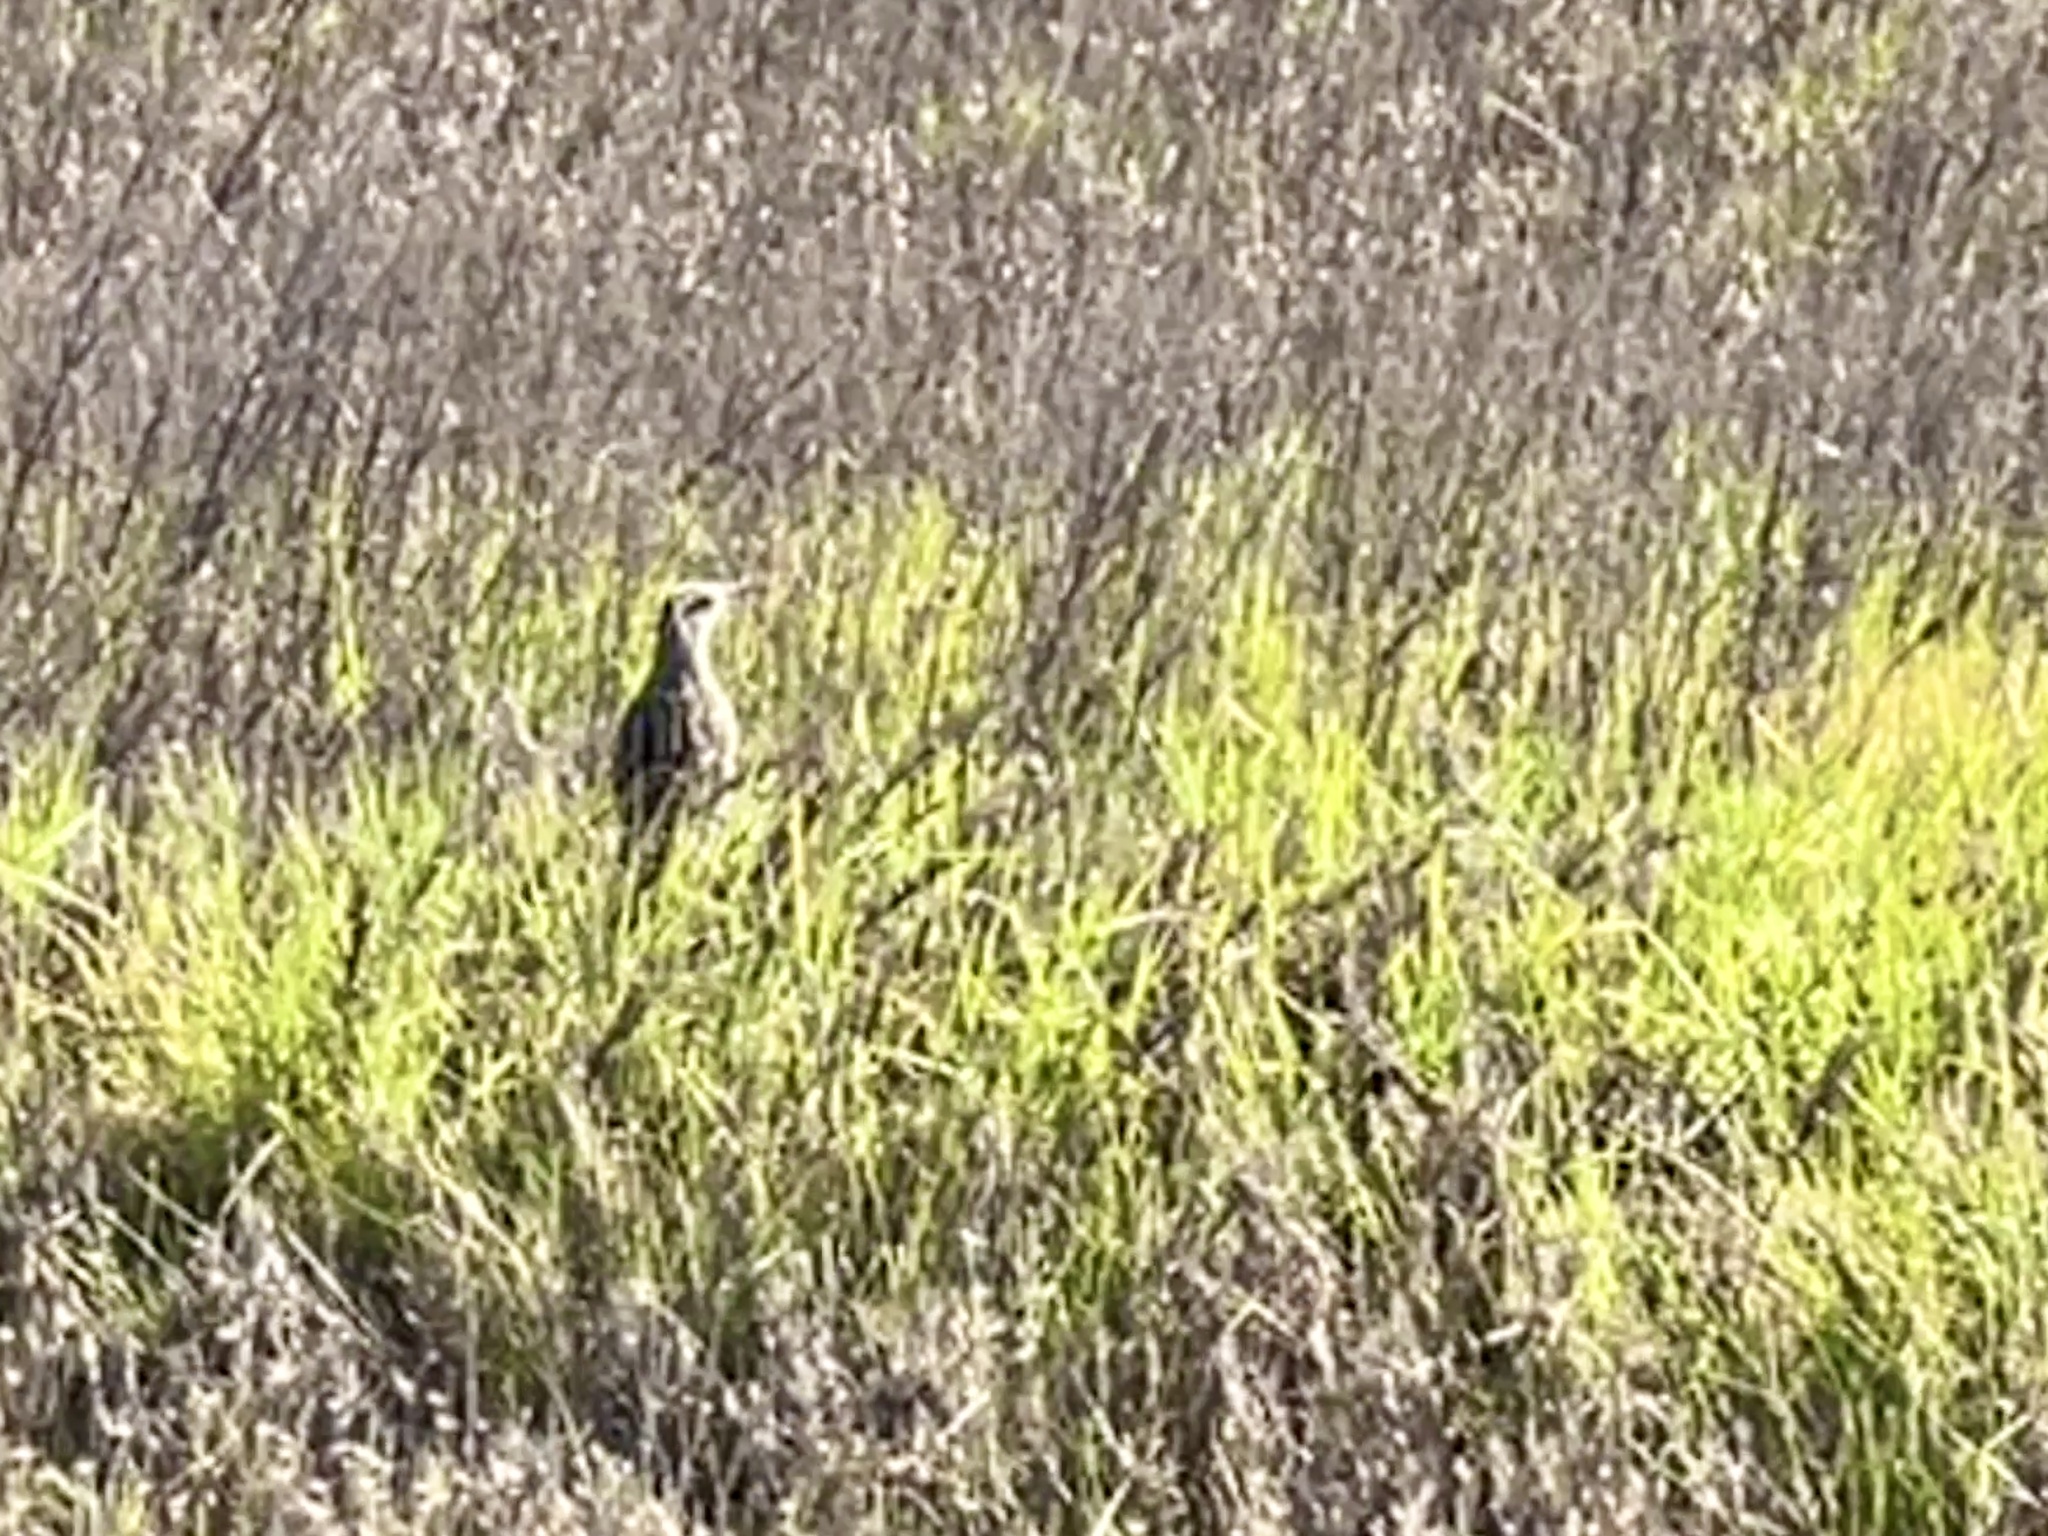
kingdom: Animalia
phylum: Chordata
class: Aves
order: Passeriformes
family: Icteridae
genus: Sturnella
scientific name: Sturnella neglecta
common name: Western meadowlark
